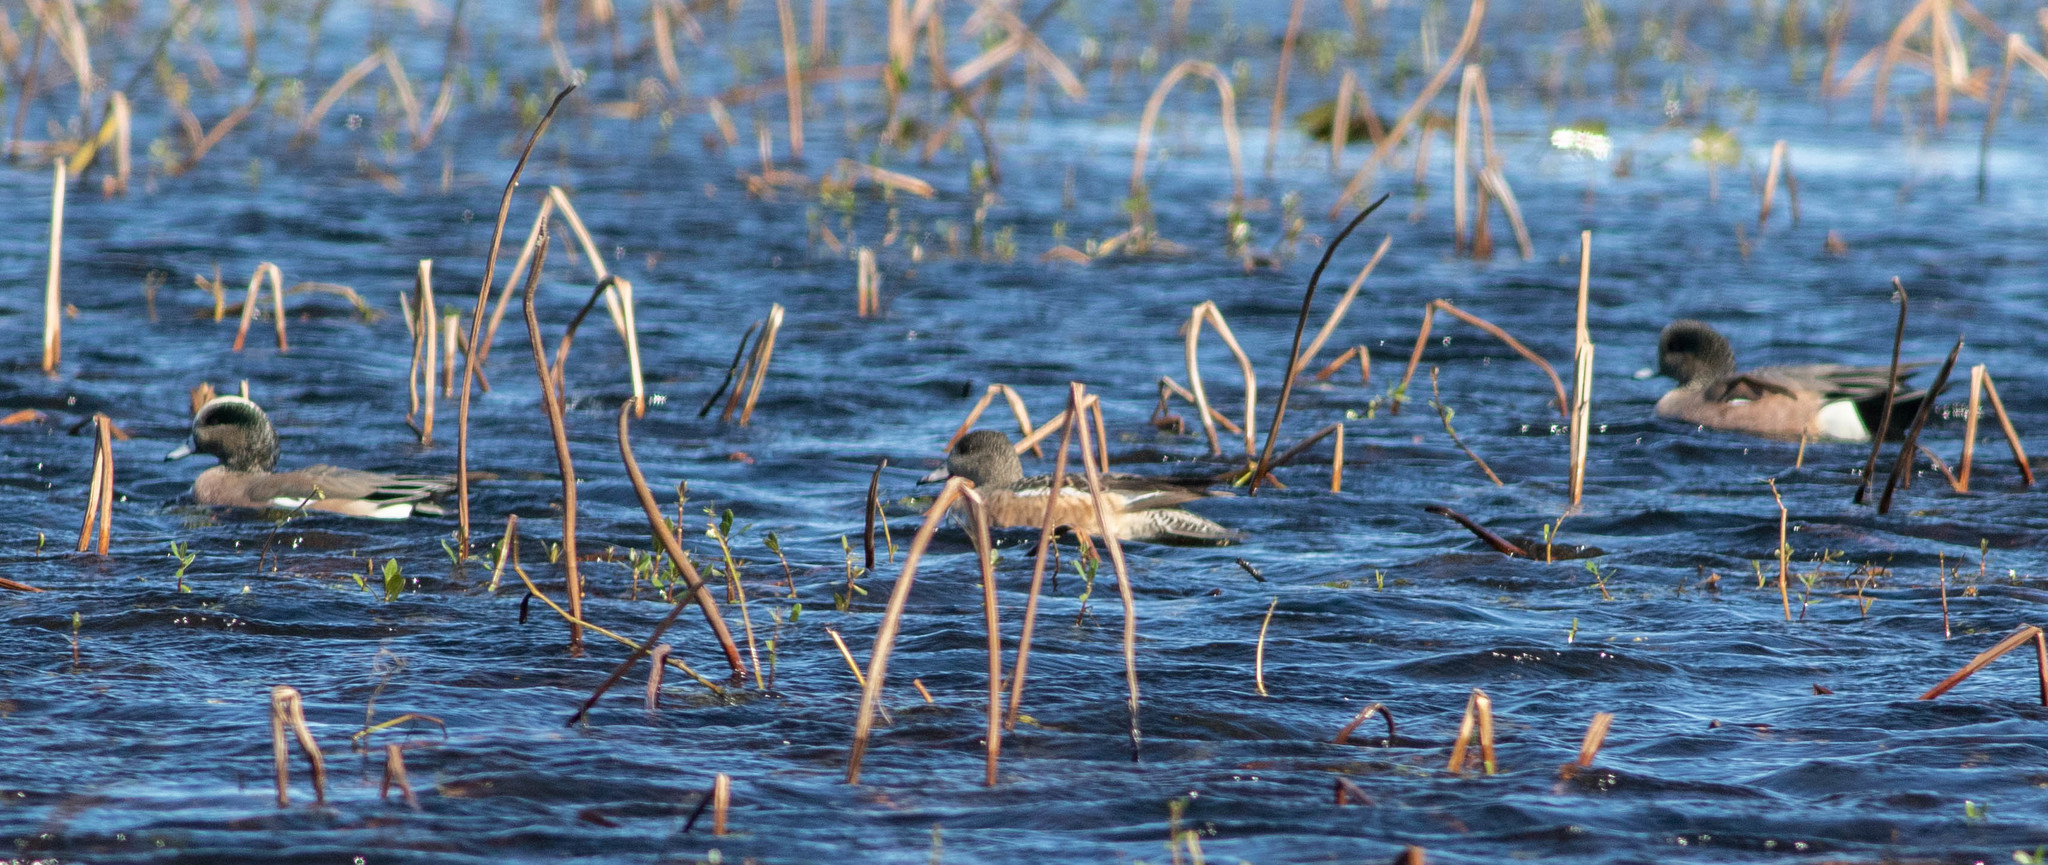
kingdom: Animalia
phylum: Chordata
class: Aves
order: Anseriformes
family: Anatidae
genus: Mareca
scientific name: Mareca americana
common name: American wigeon
